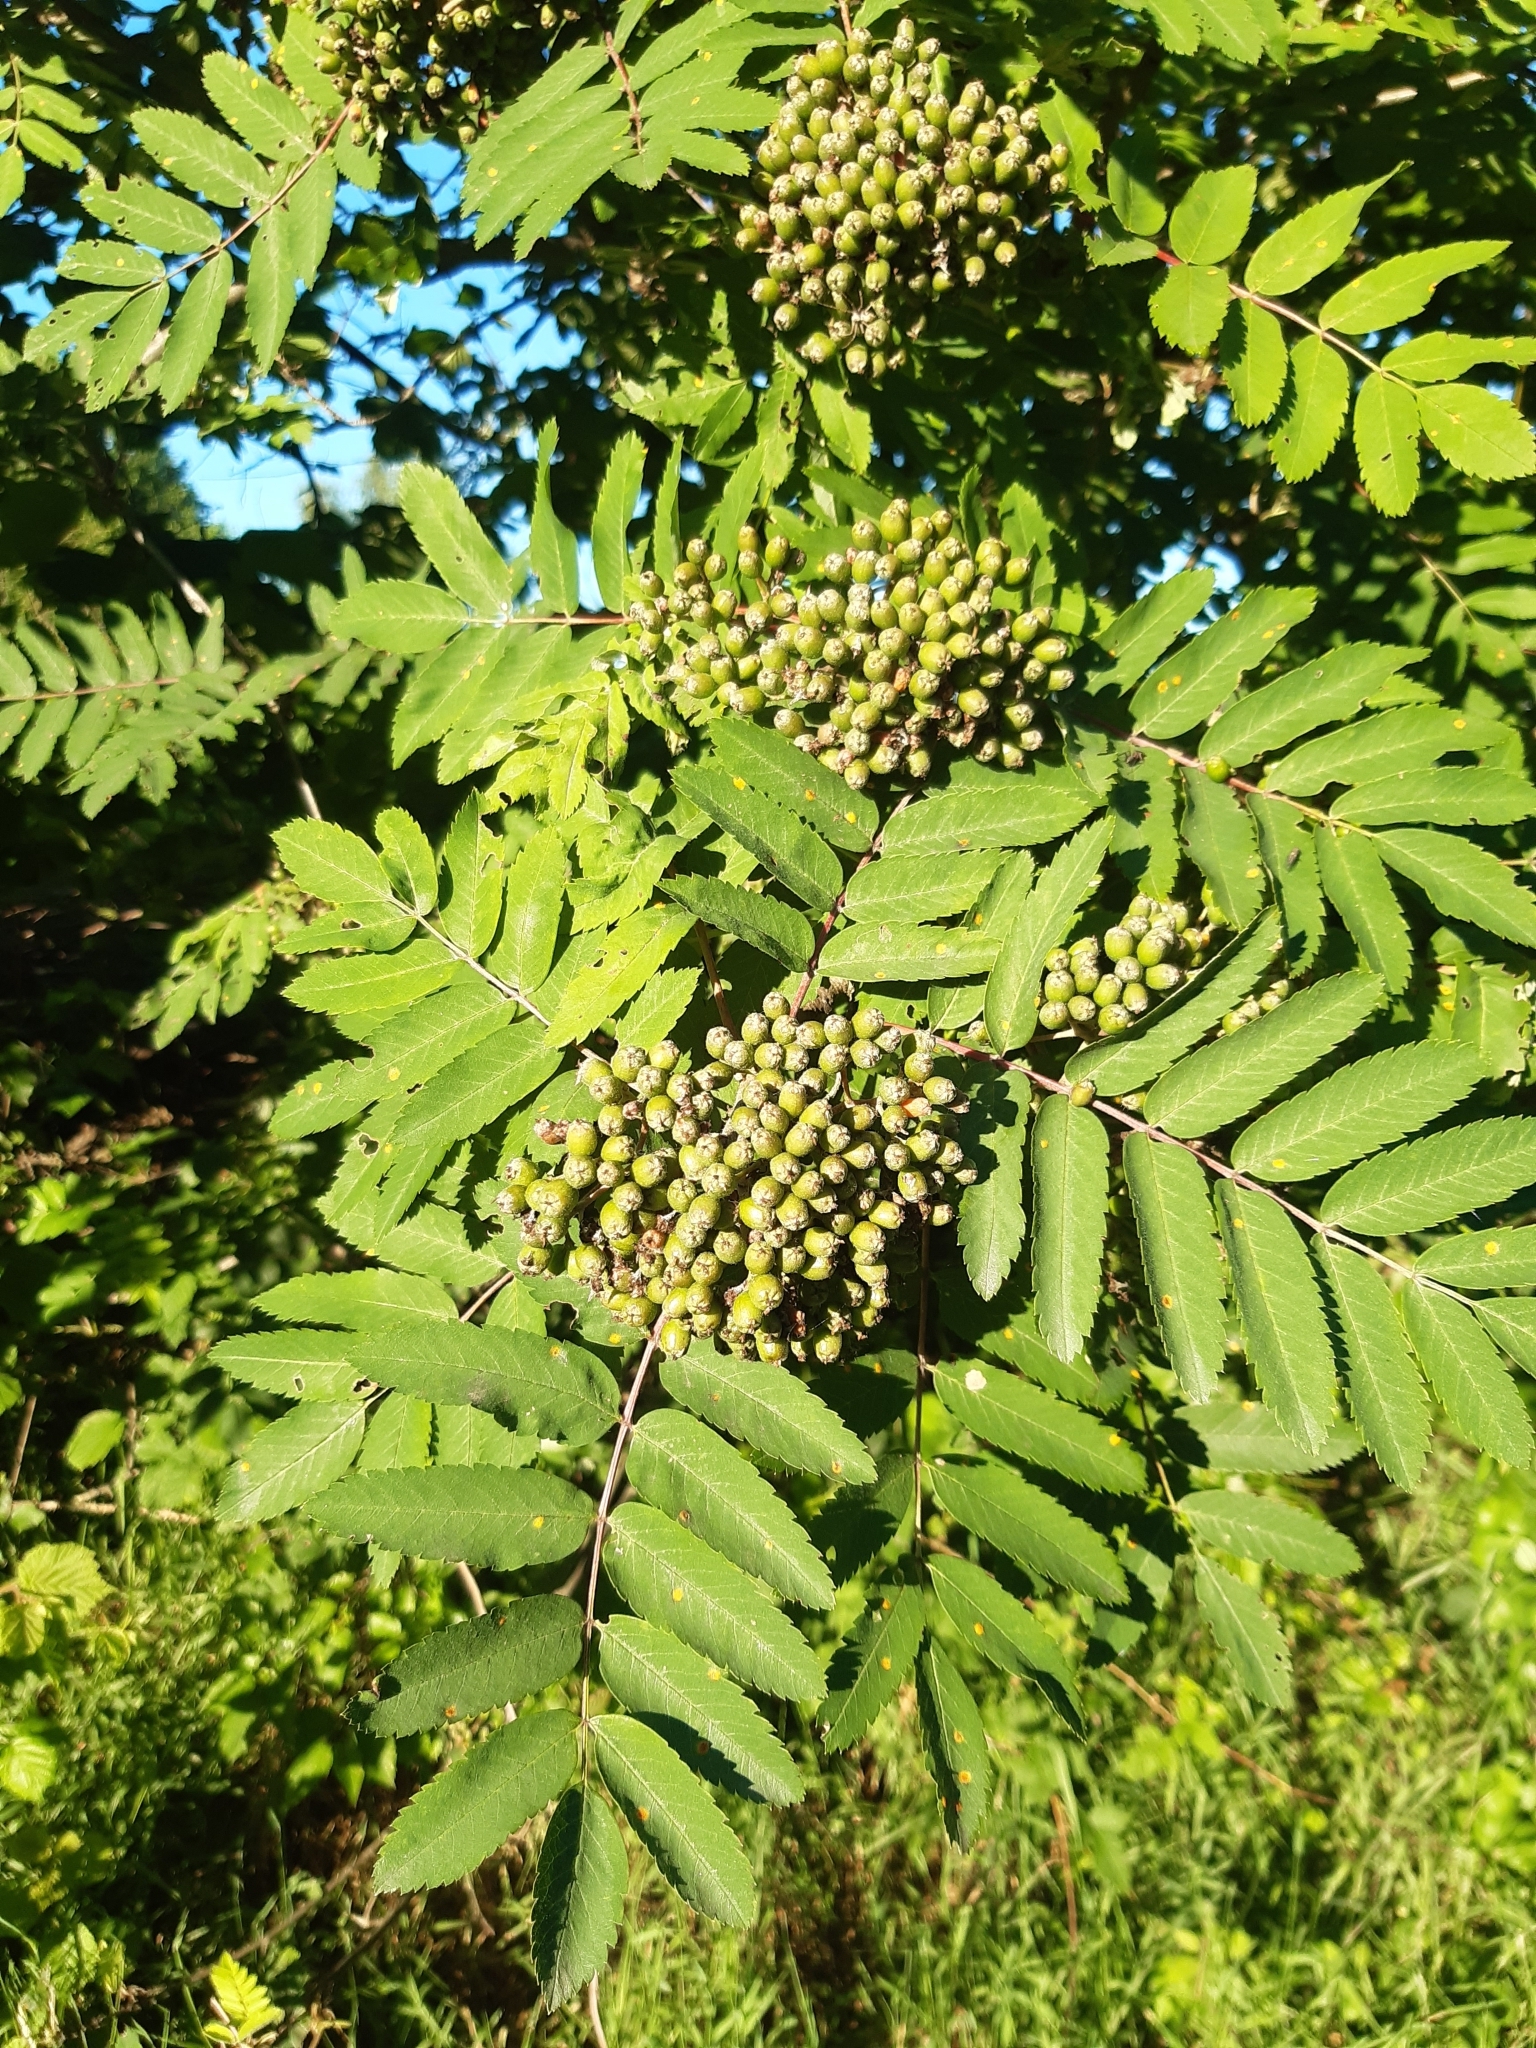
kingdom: Plantae
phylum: Tracheophyta
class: Magnoliopsida
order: Rosales
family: Rosaceae
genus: Sorbus
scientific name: Sorbus aucuparia
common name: Rowan
